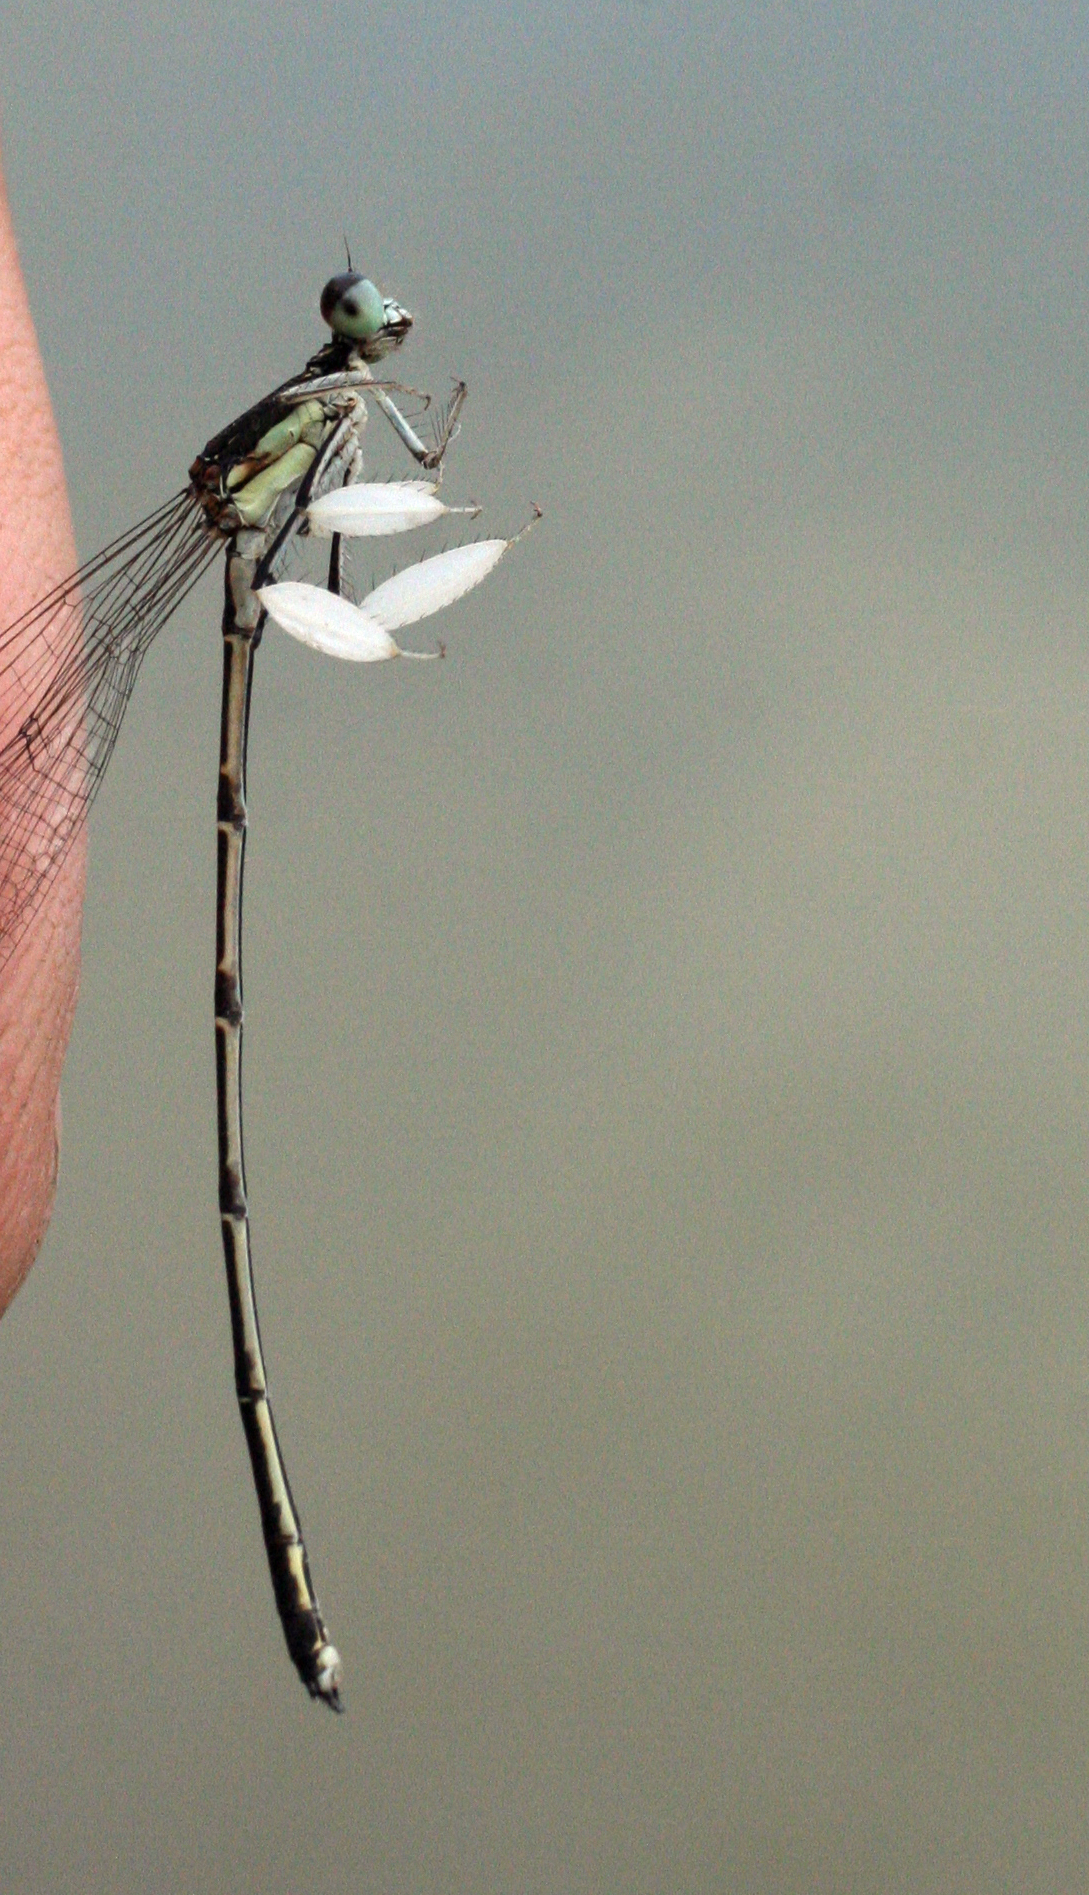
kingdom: Animalia
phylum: Arthropoda
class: Insecta
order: Odonata
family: Platycnemididae
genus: Platycnemis
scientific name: Platycnemis phyllopoda
